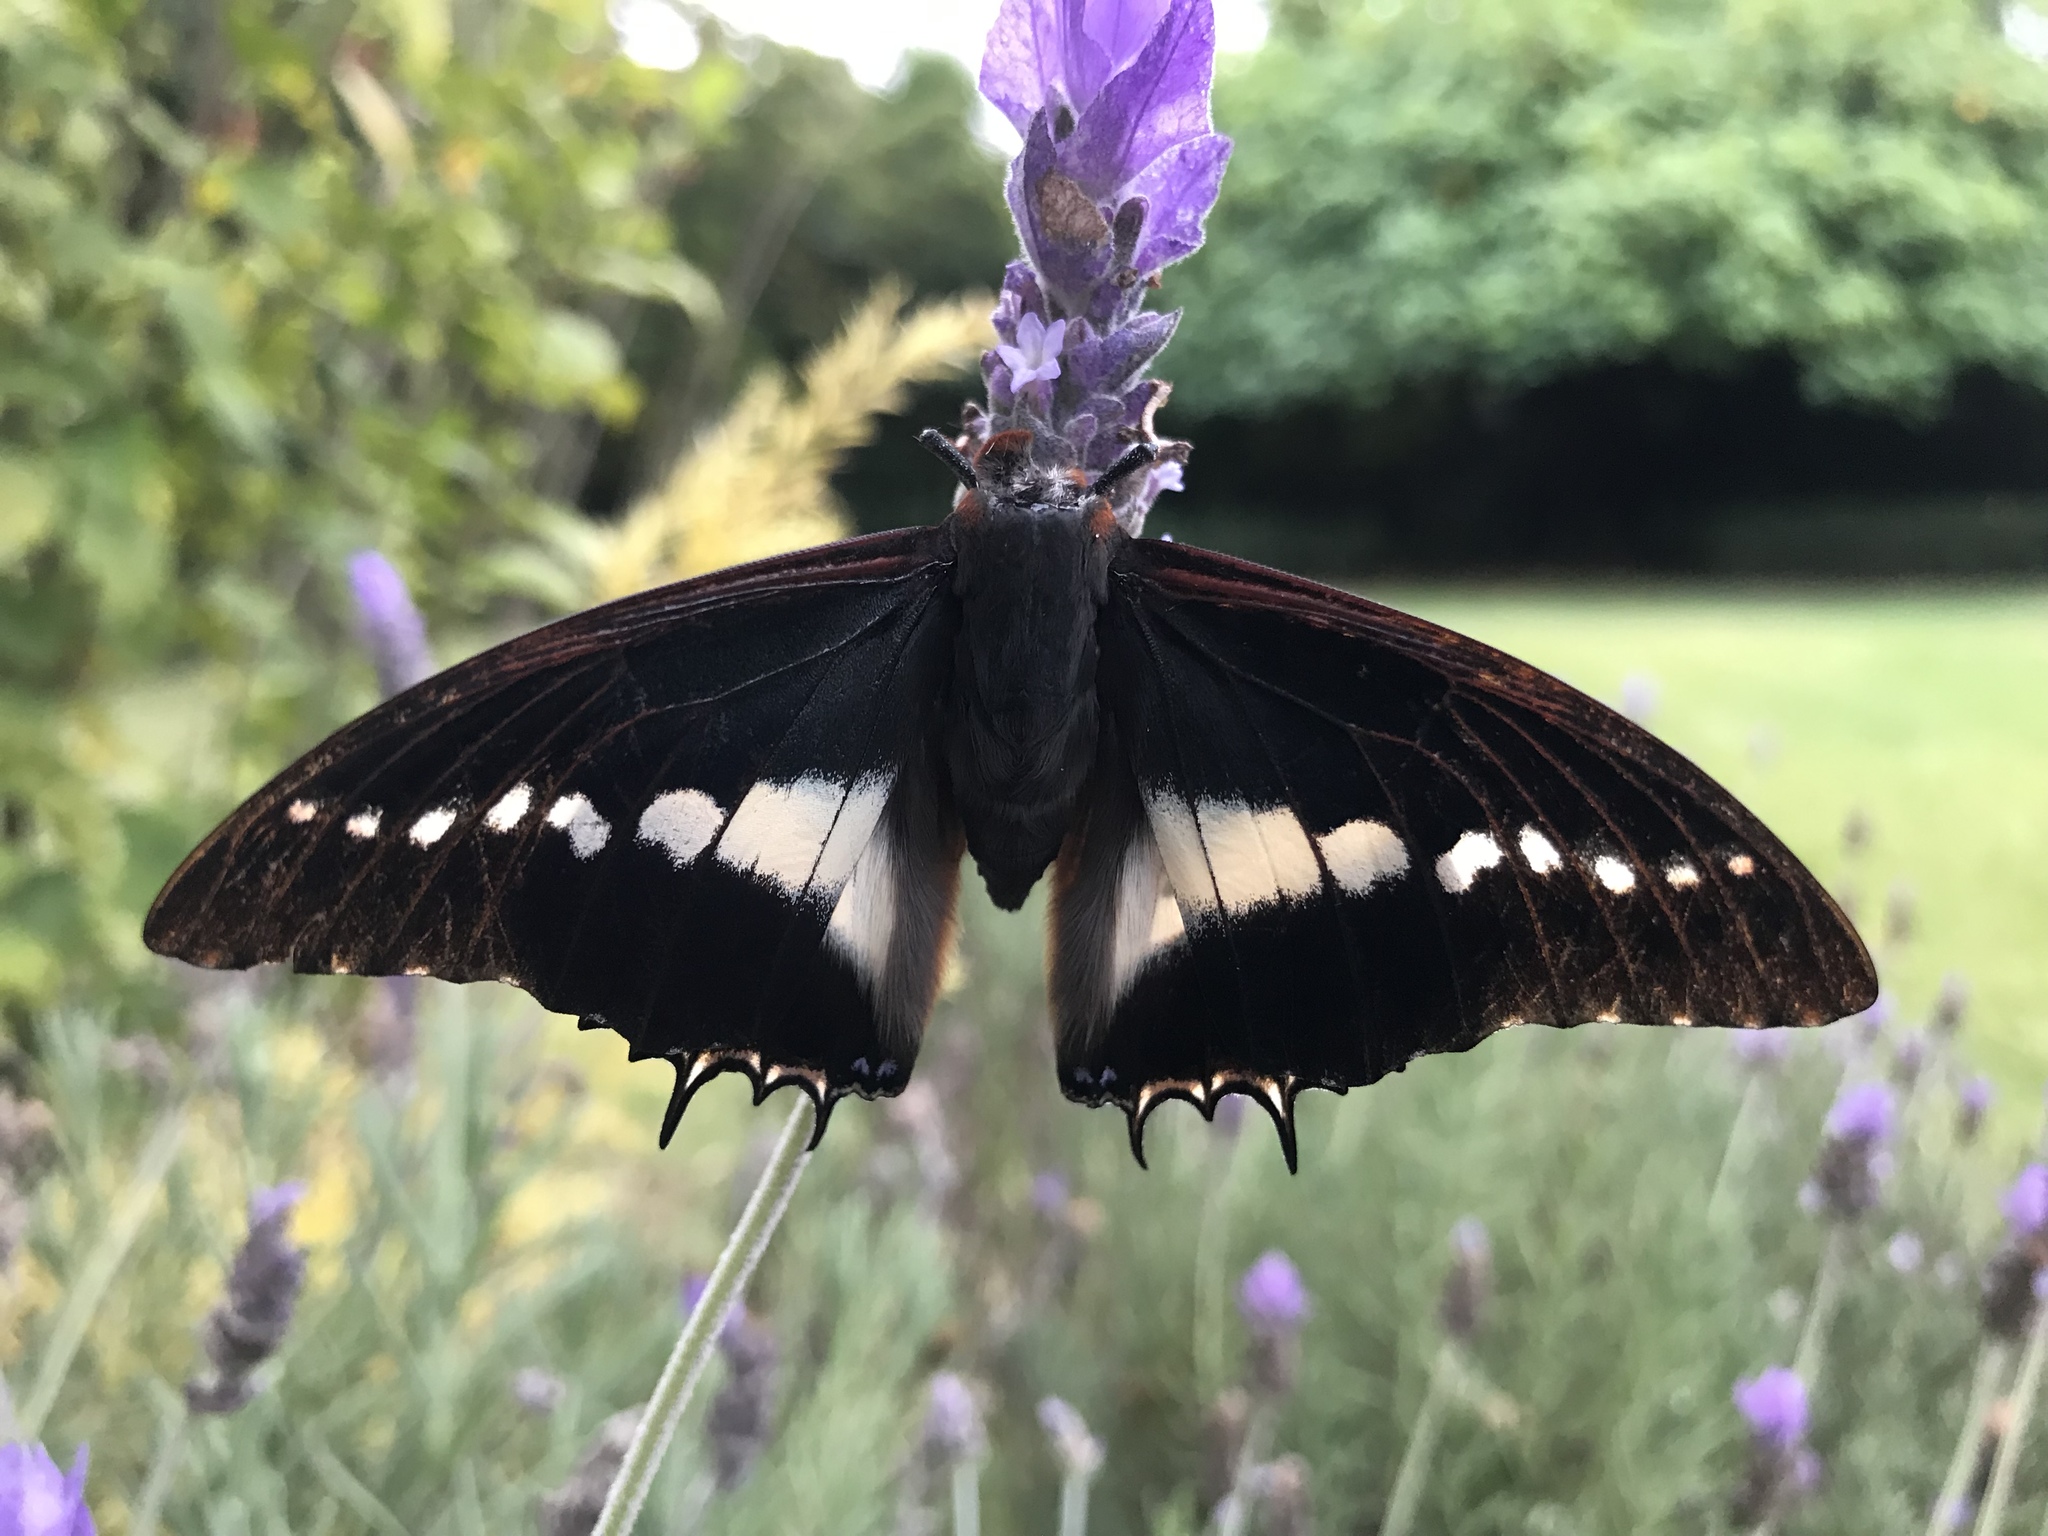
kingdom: Animalia
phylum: Arthropoda
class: Insecta
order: Lepidoptera
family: Nymphalidae
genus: Charaxes
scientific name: Charaxes brutus
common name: White-barred charaxes
